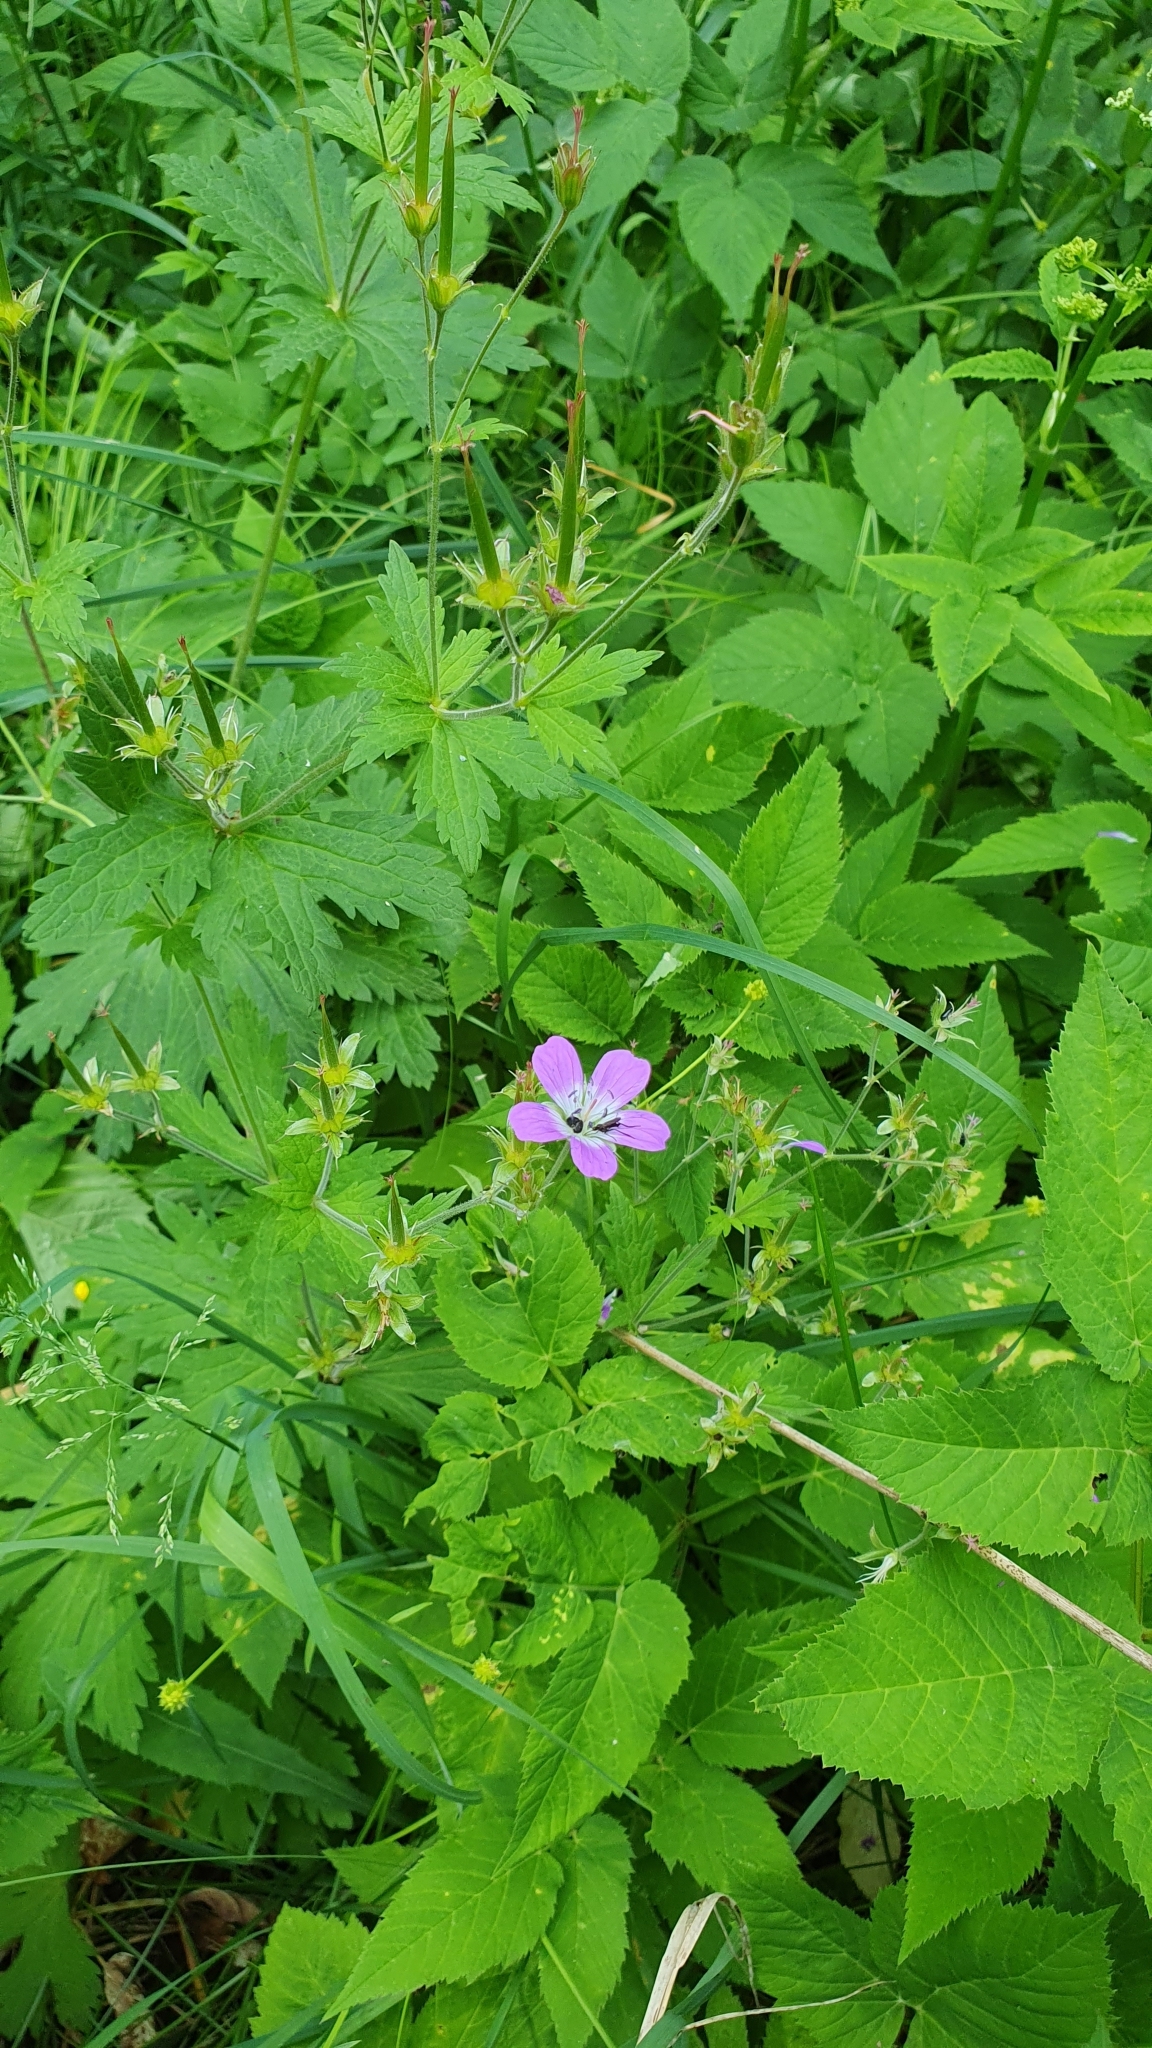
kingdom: Plantae
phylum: Tracheophyta
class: Magnoliopsida
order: Geraniales
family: Geraniaceae
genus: Geranium
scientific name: Geranium sylvaticum
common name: Wood crane's-bill
